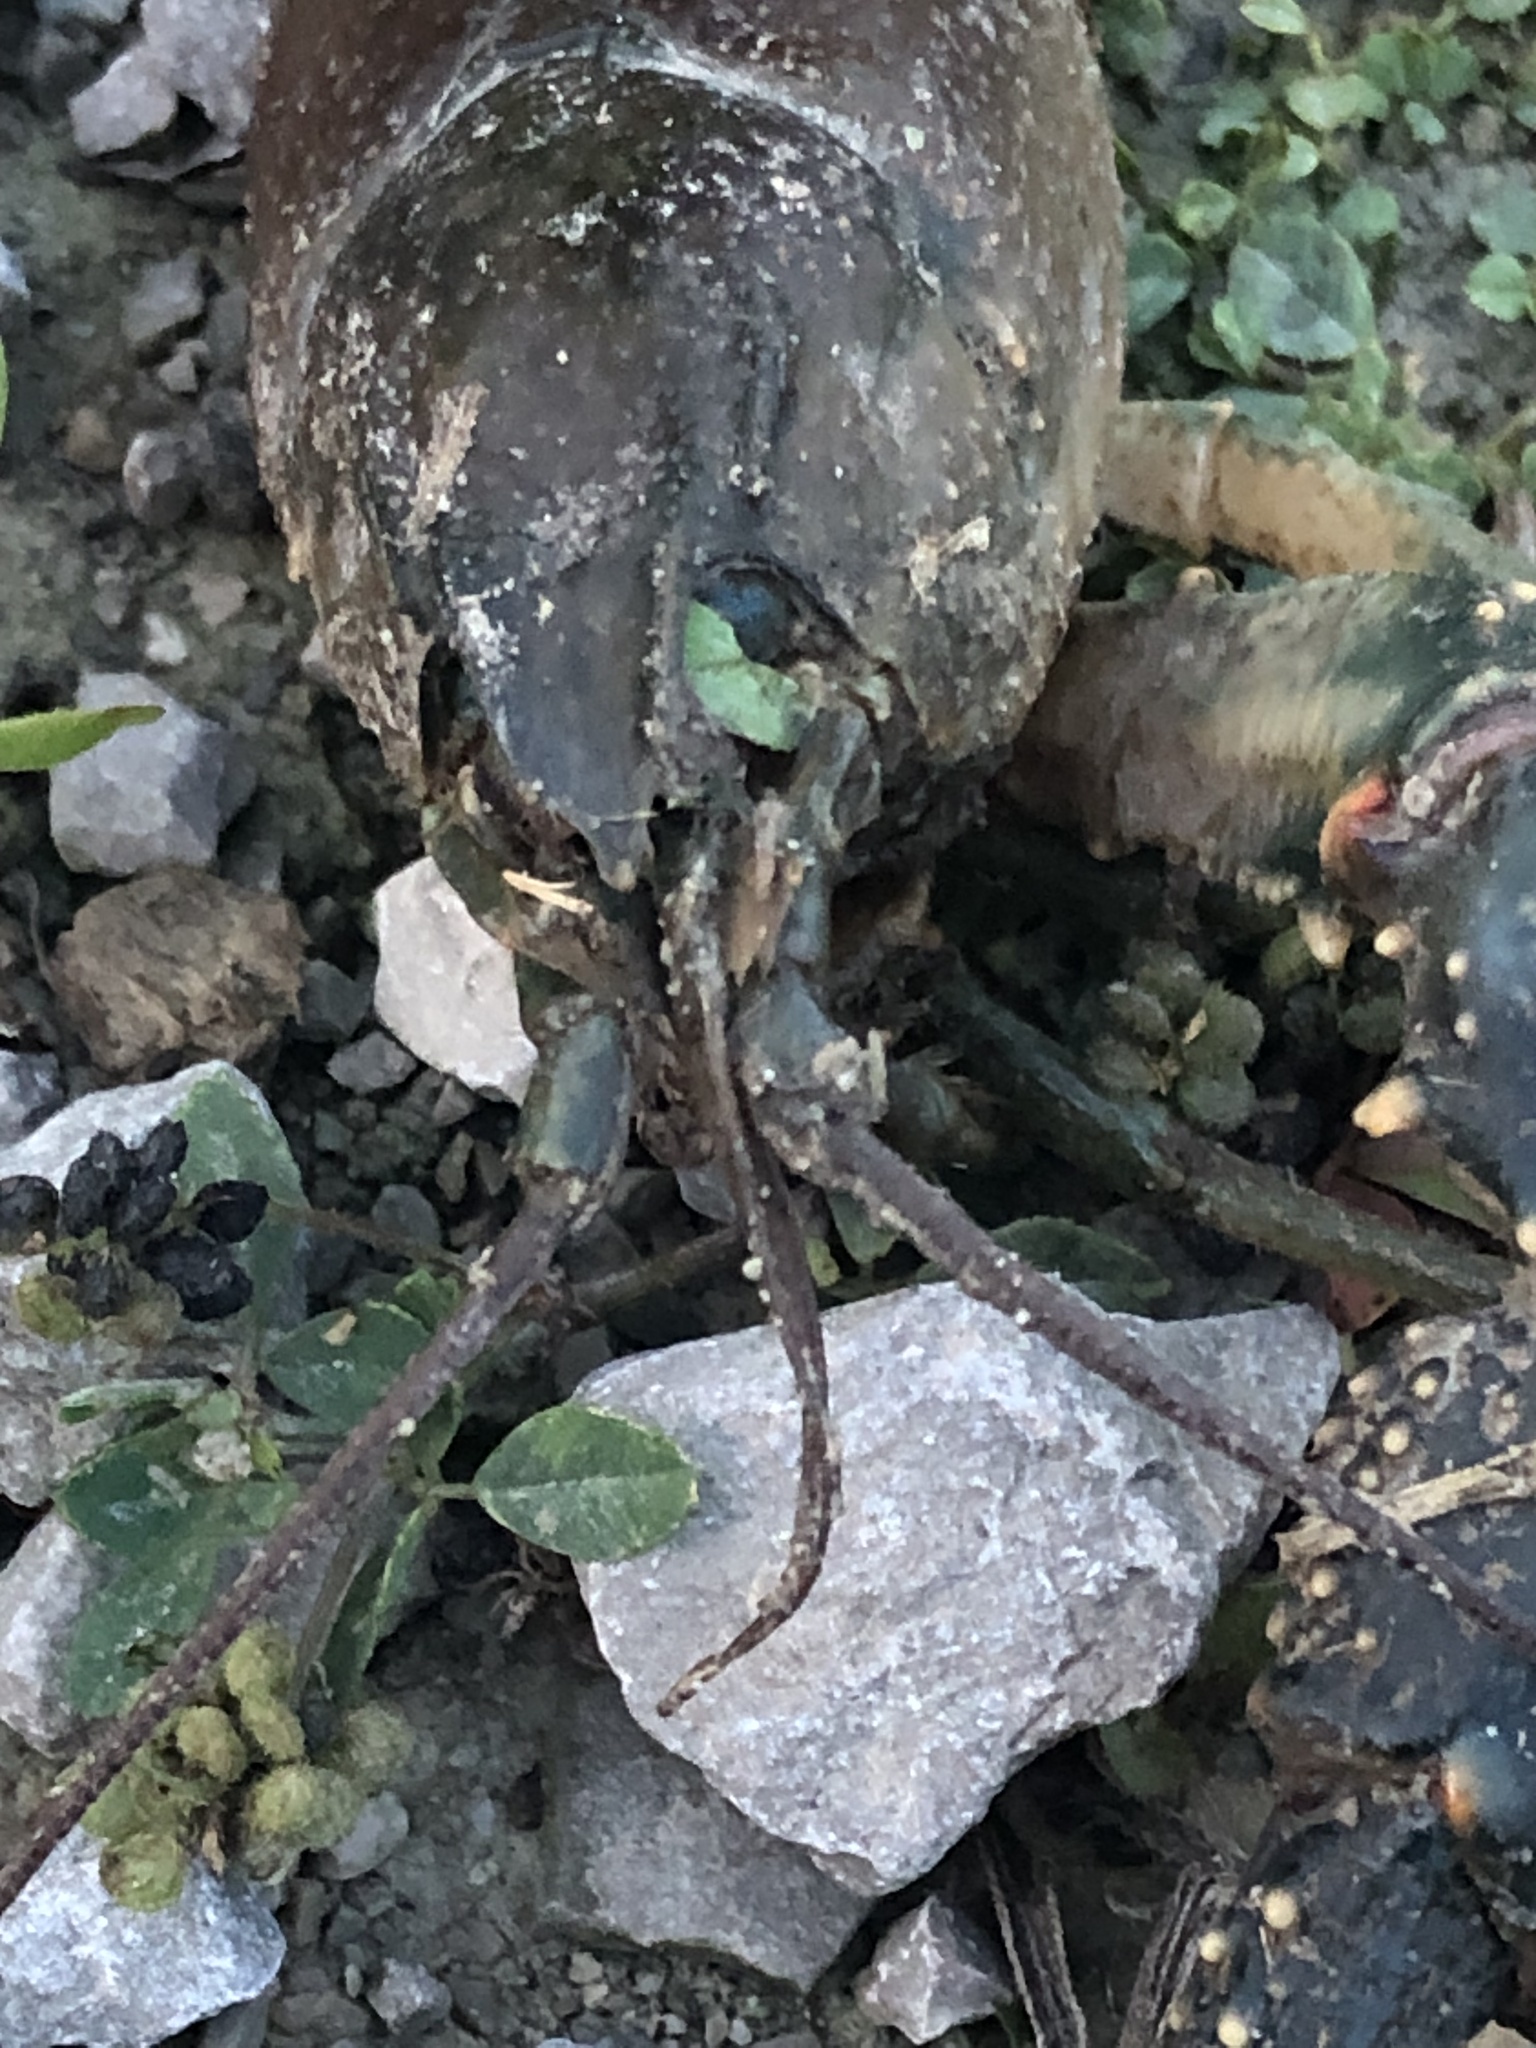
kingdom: Animalia
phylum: Arthropoda
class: Malacostraca
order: Decapoda
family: Cambaridae
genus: Faxonius
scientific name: Faxonius virilis
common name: Virile crayfish
